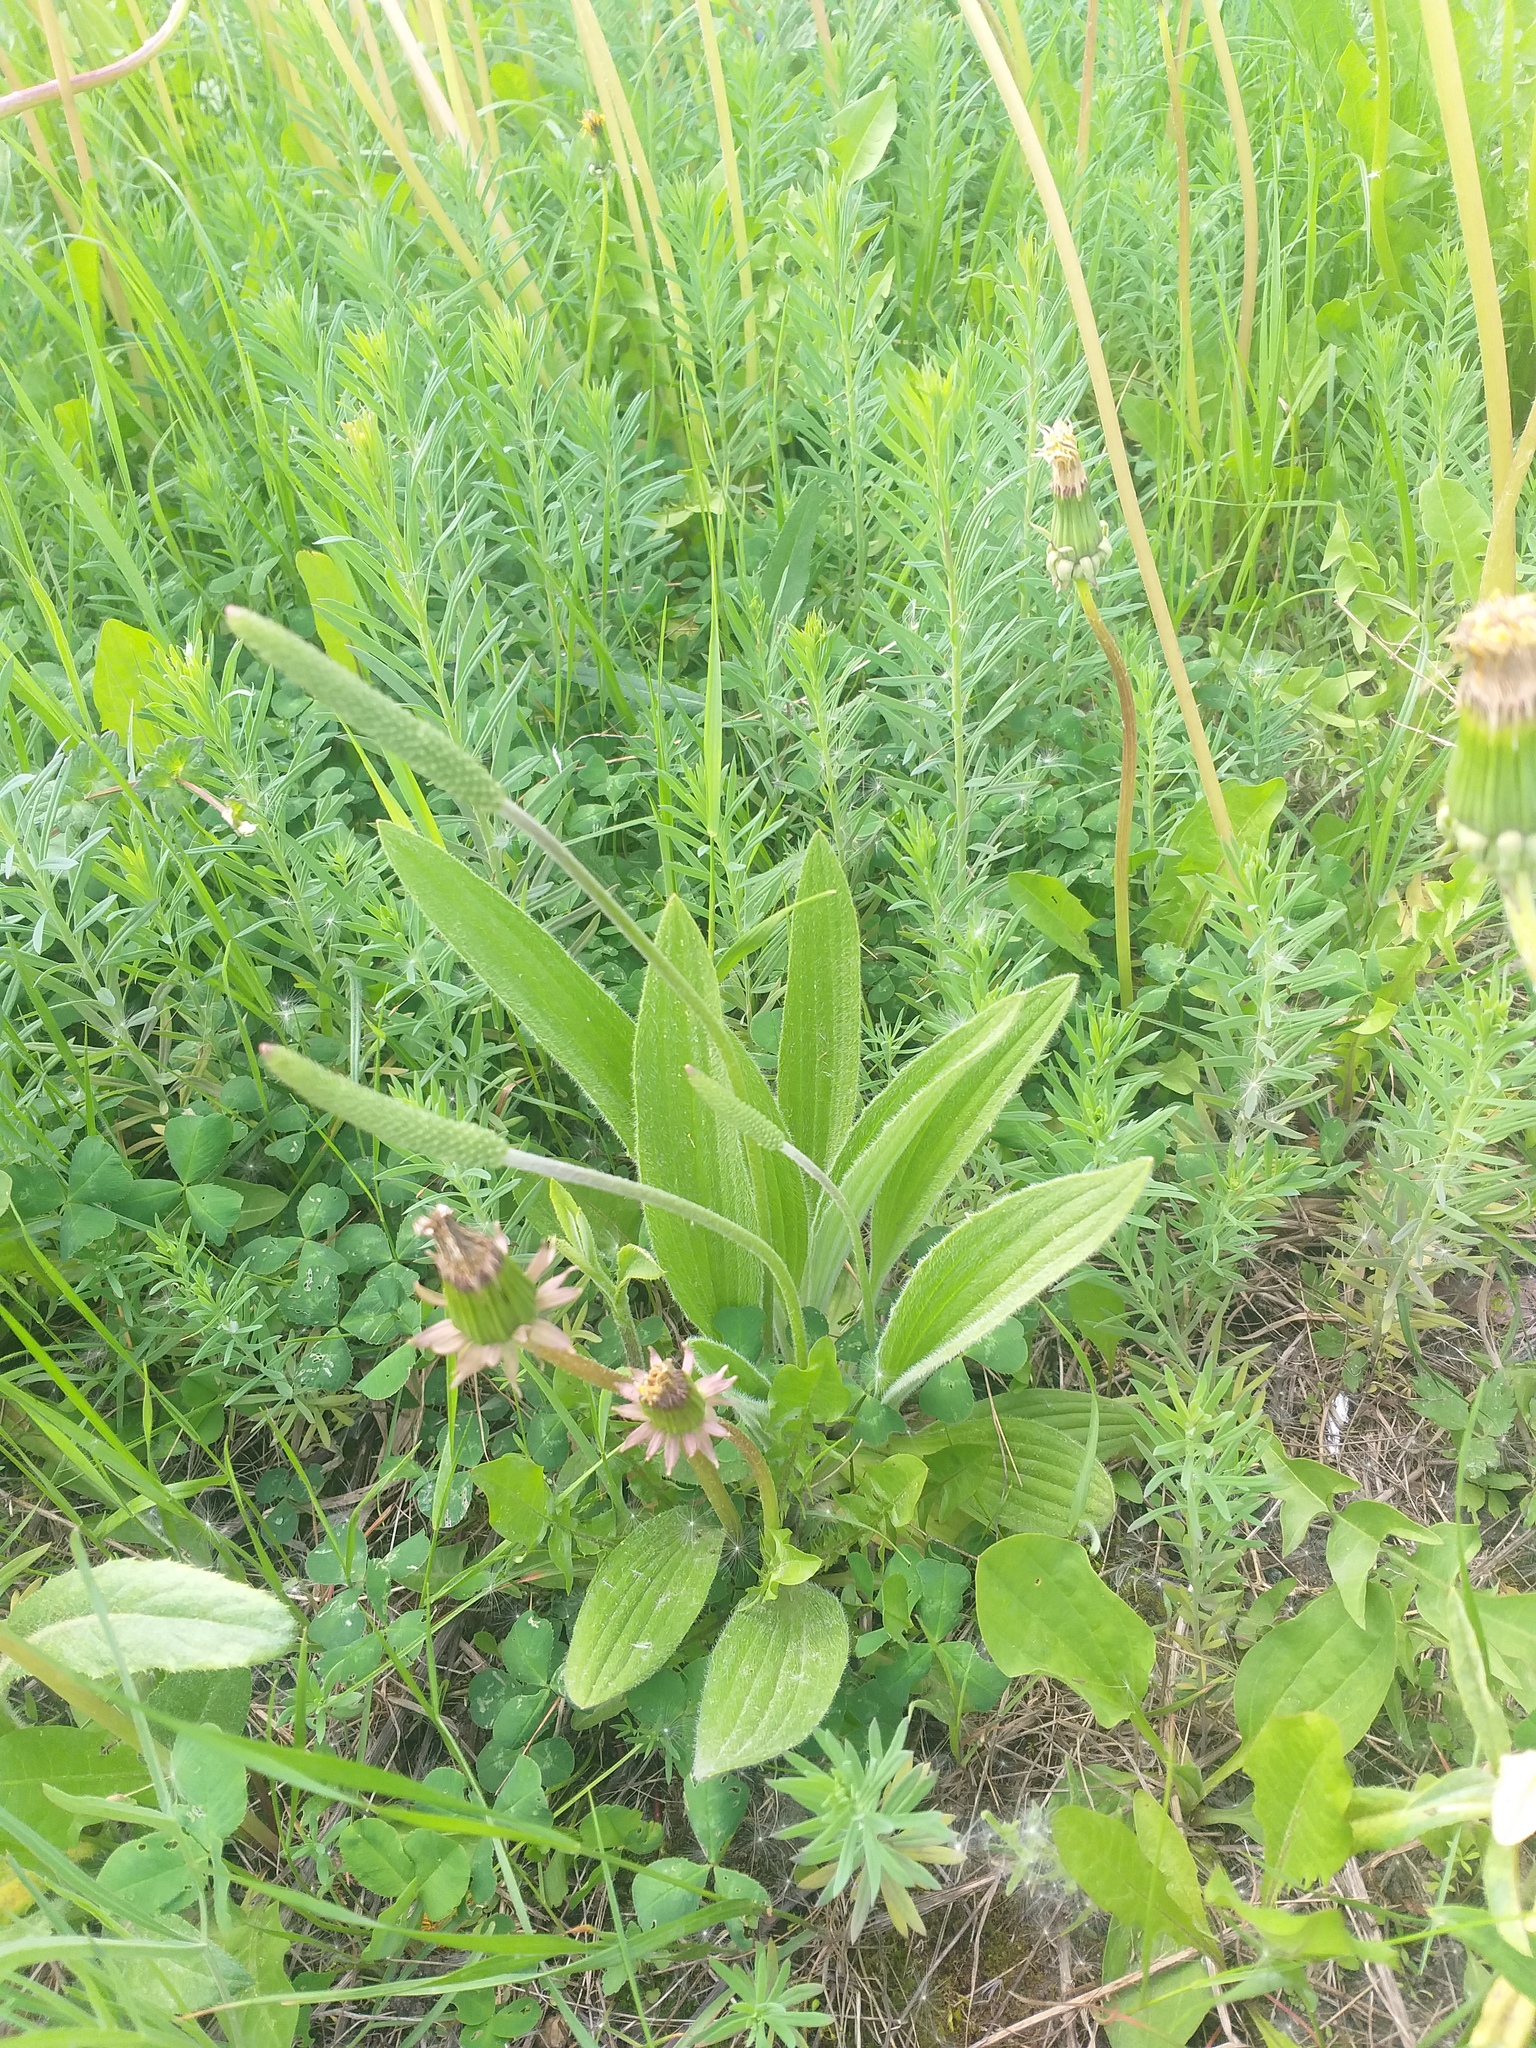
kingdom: Plantae
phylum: Tracheophyta
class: Magnoliopsida
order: Lamiales
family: Plantaginaceae
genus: Plantago
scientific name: Plantago urvillei
